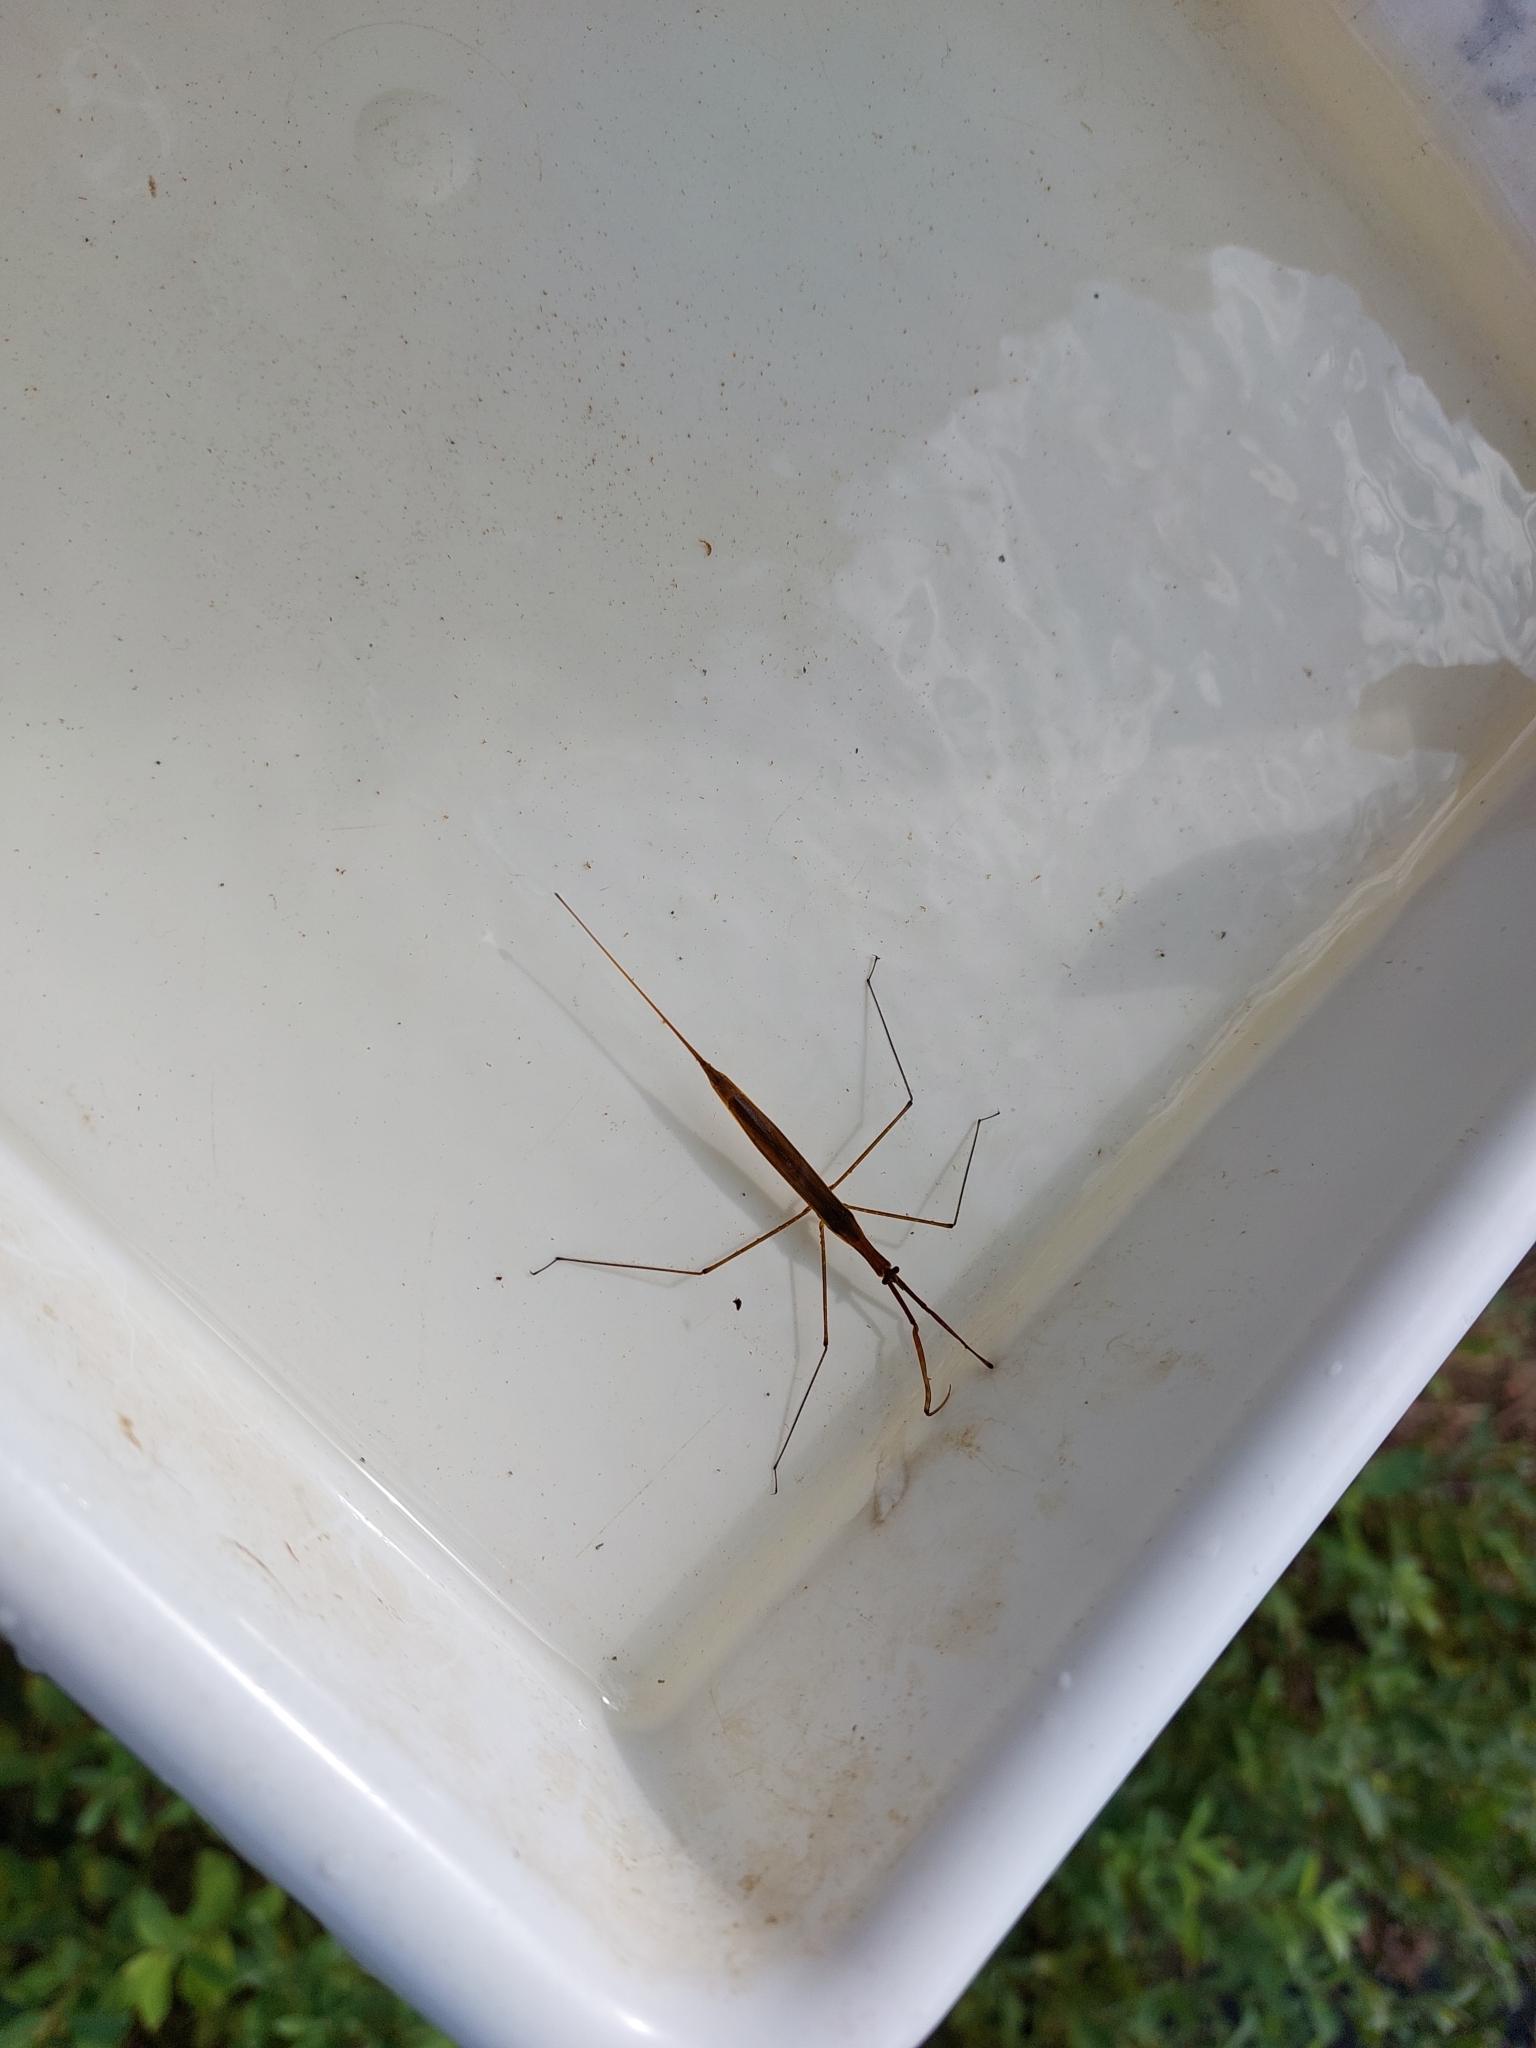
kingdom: Animalia
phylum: Arthropoda
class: Insecta
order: Hemiptera
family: Nepidae
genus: Ranatra
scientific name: Ranatra linearis
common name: Water stick insect
